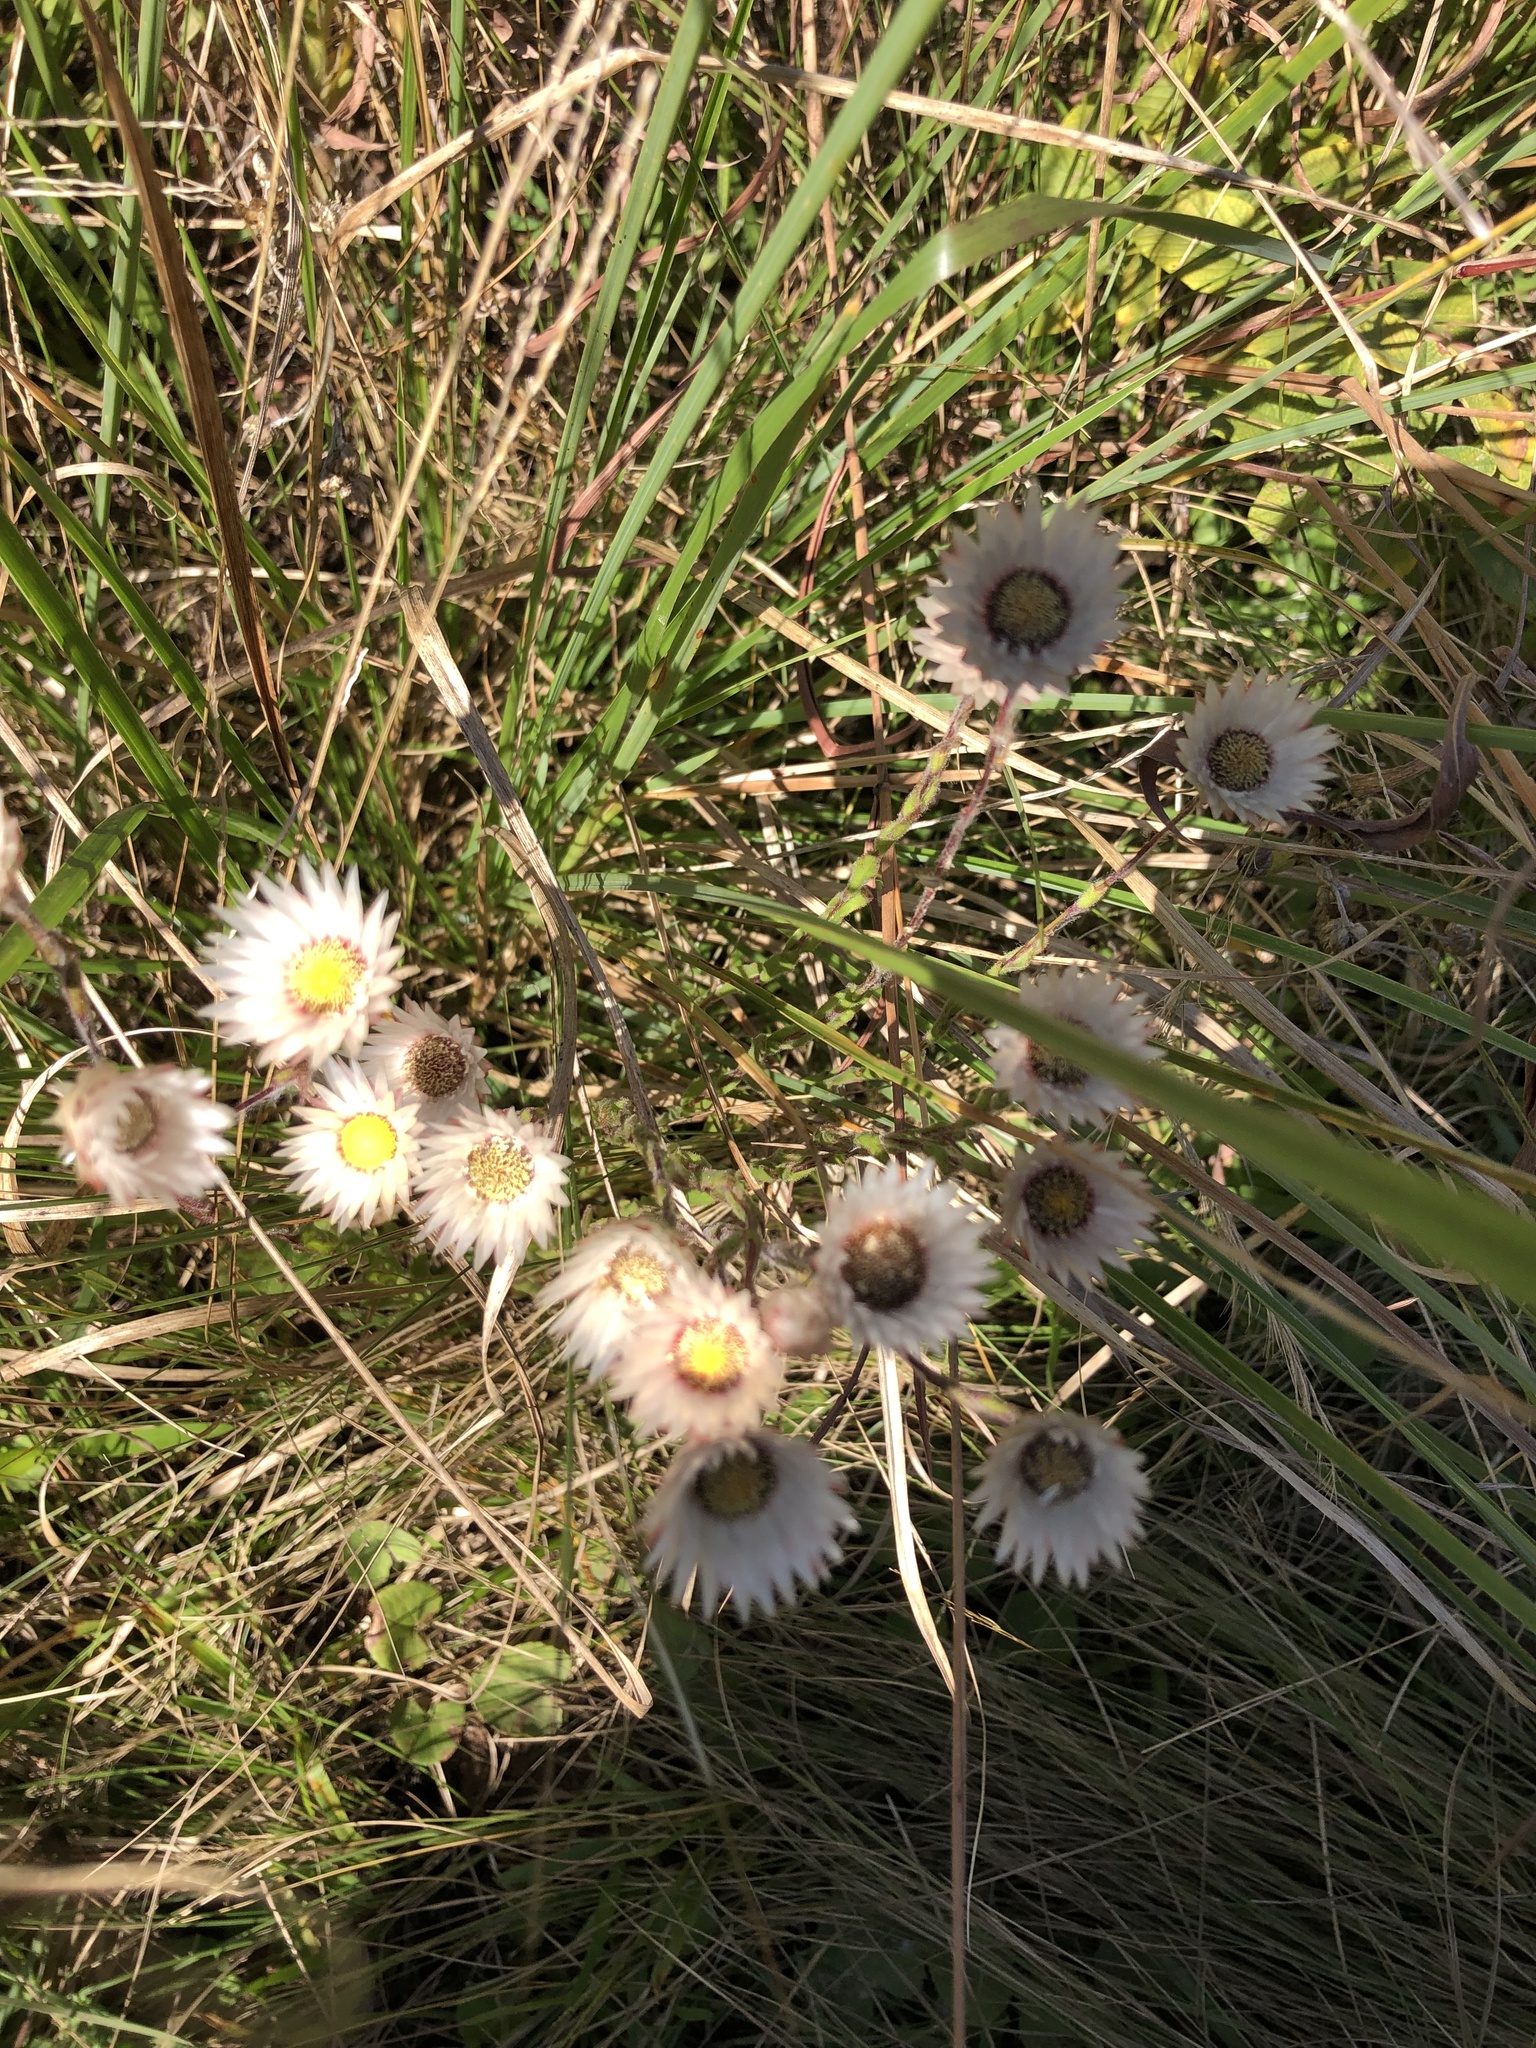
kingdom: Plantae
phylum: Tracheophyta
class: Magnoliopsida
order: Asterales
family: Asteraceae
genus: Helichrysum
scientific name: Helichrysum adenocarpum
